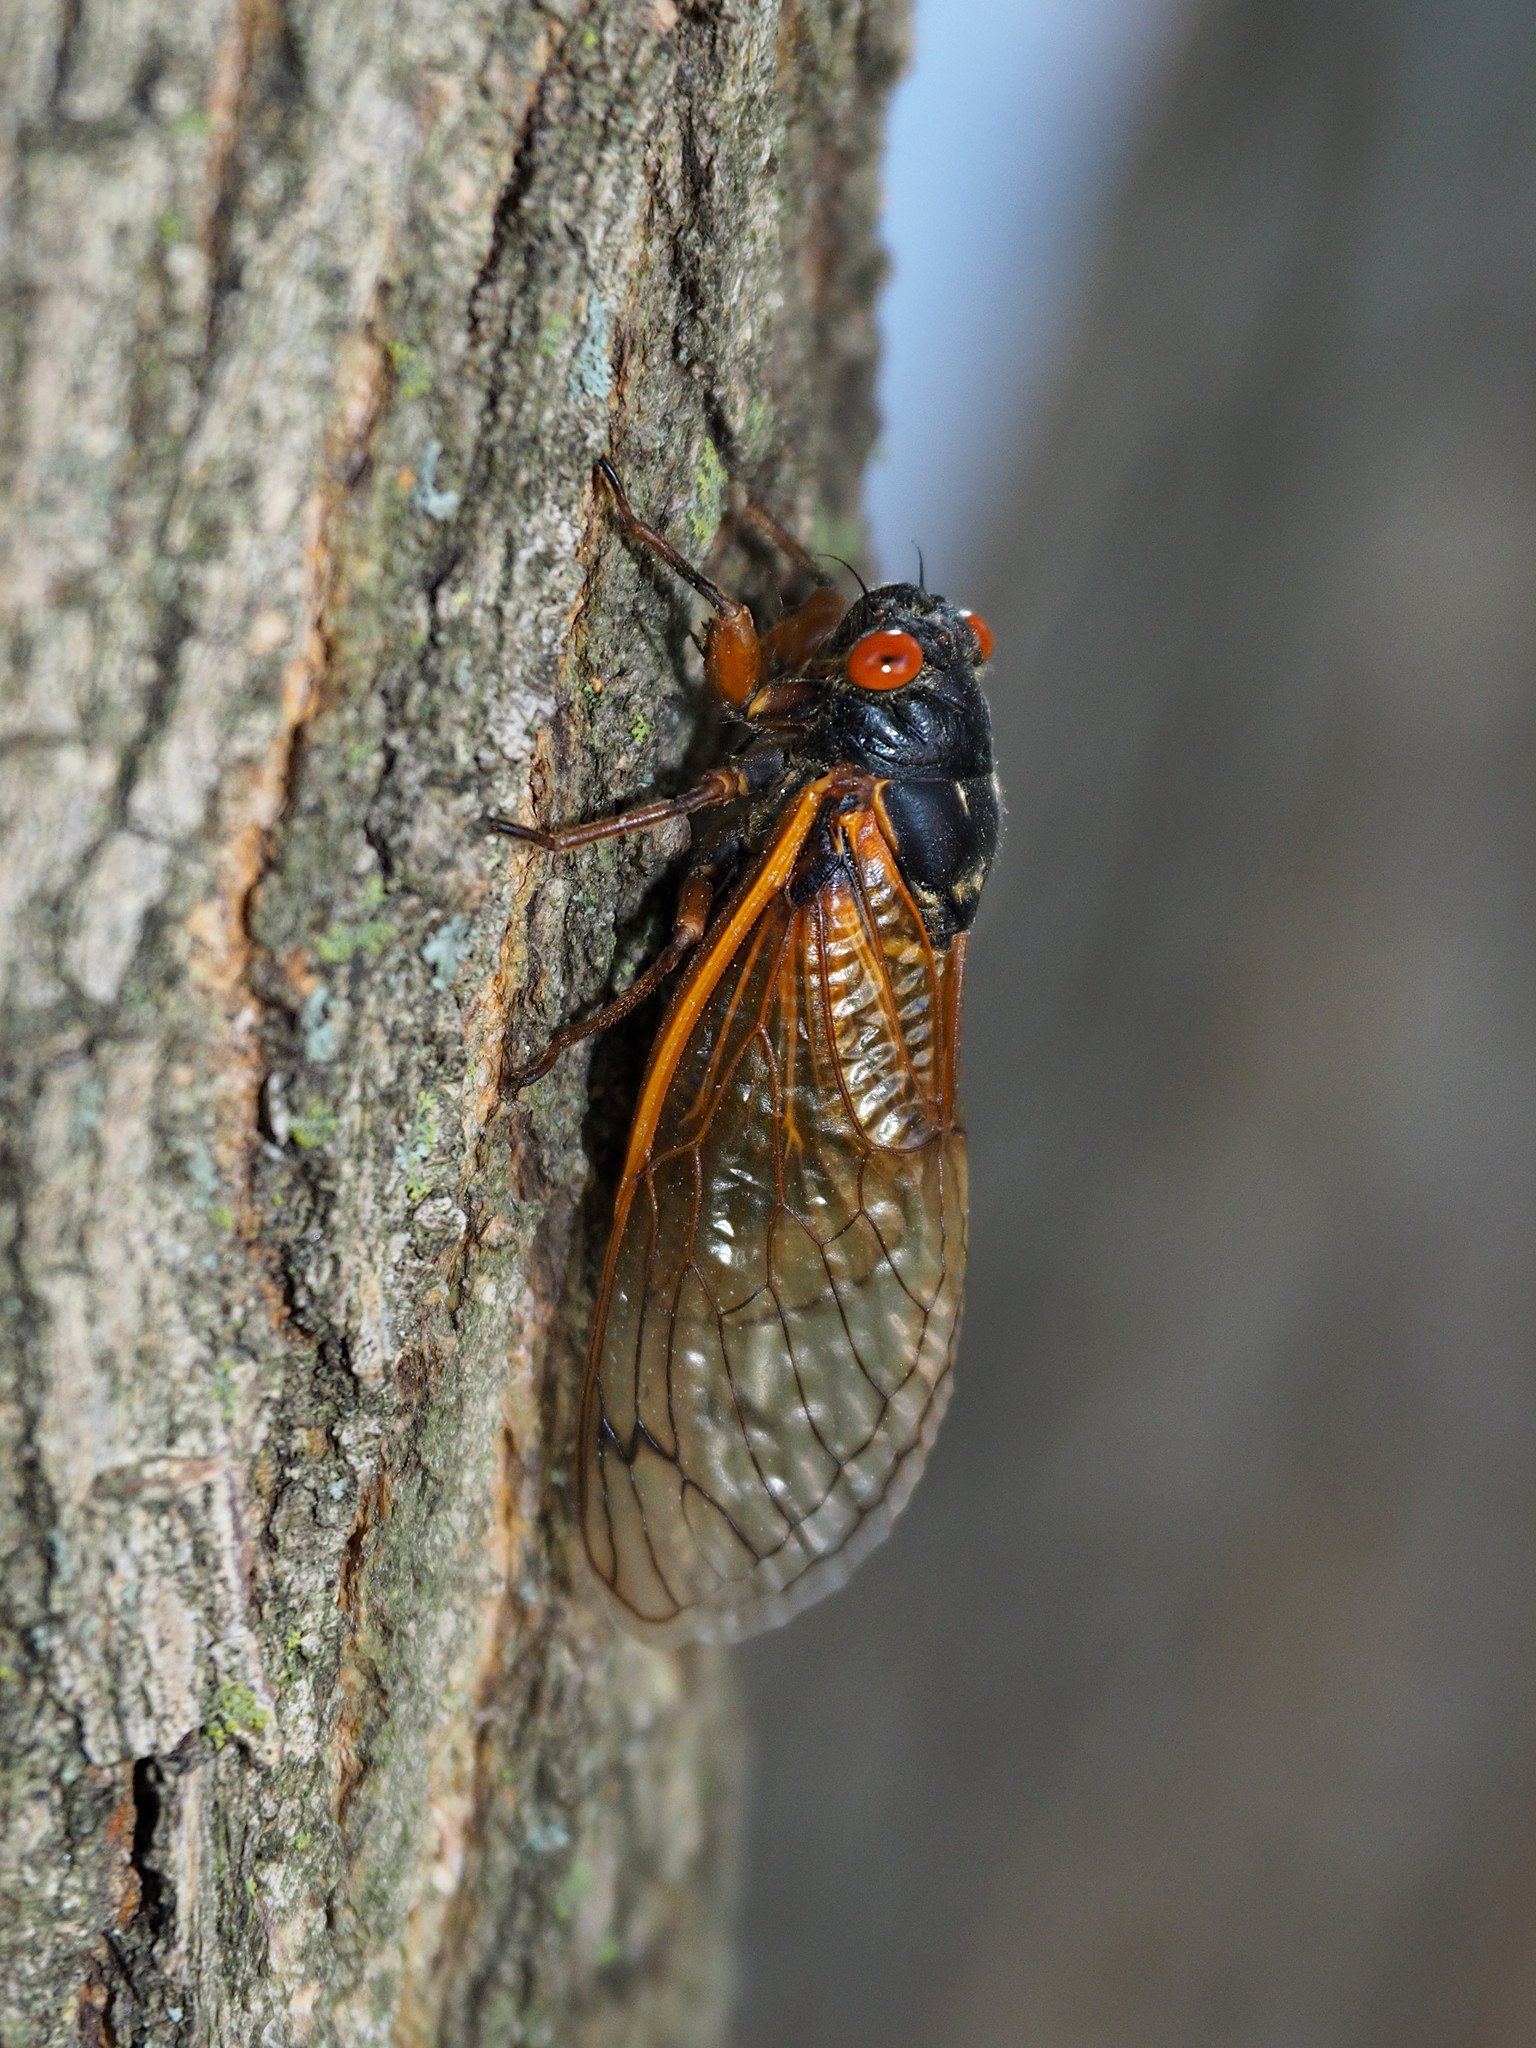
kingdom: Animalia
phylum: Arthropoda
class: Insecta
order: Hemiptera
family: Cicadidae
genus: Magicicada
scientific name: Magicicada cassini
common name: Cassin's 17-year cicada
